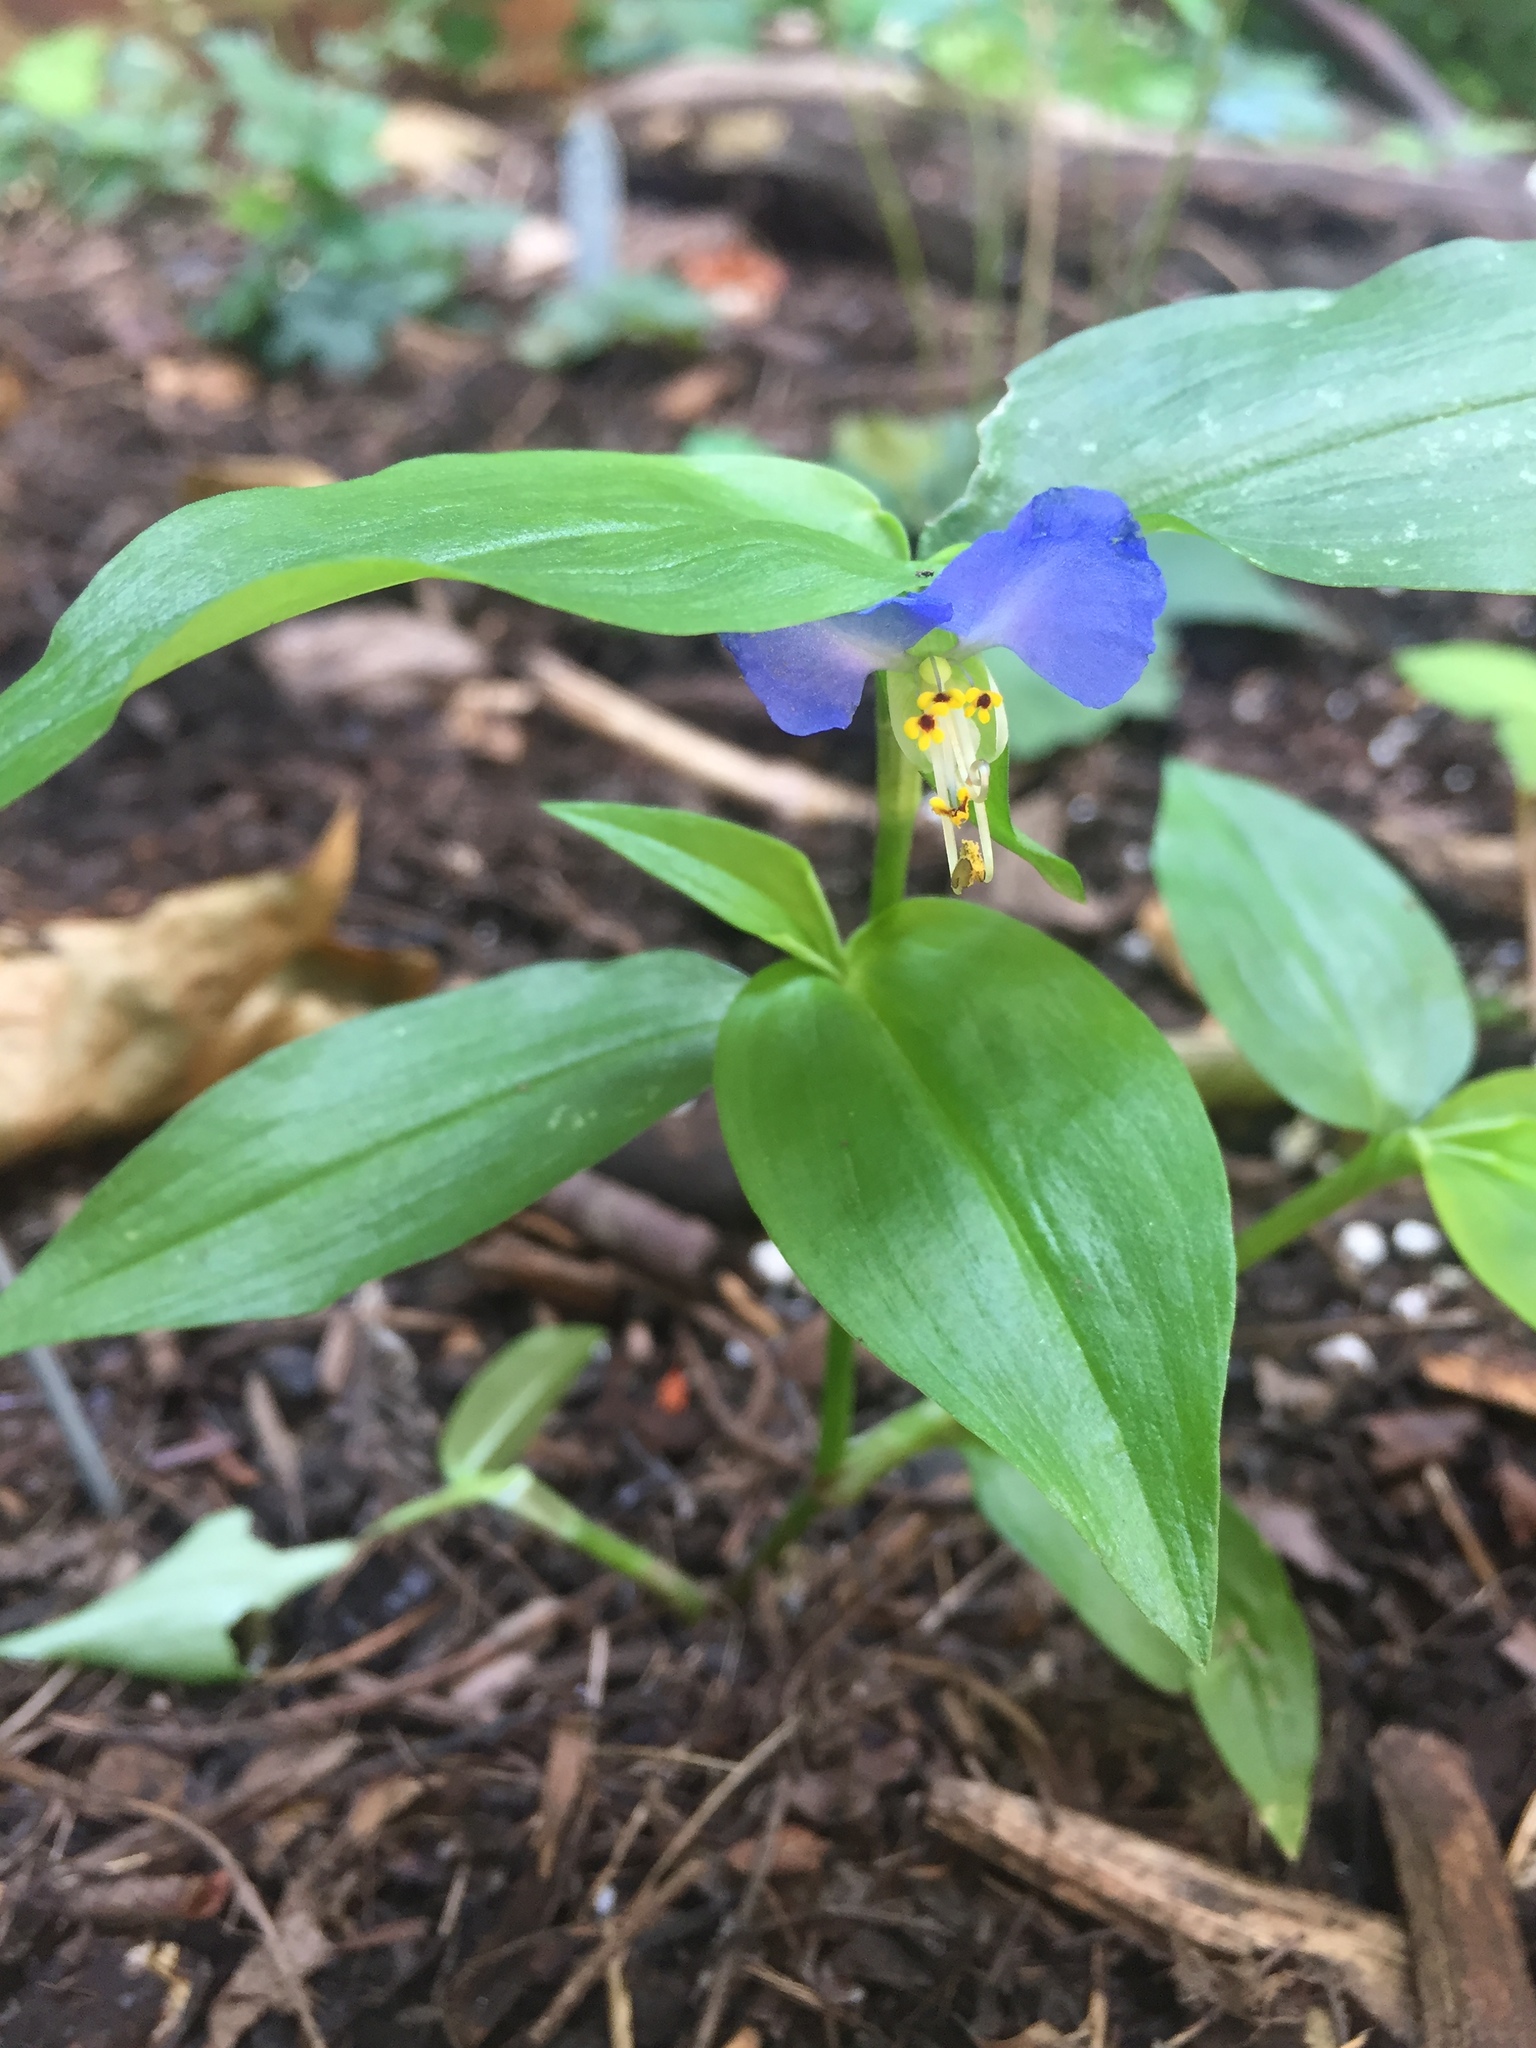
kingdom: Plantae
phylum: Tracheophyta
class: Liliopsida
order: Commelinales
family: Commelinaceae
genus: Commelina
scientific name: Commelina communis
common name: Asiatic dayflower
